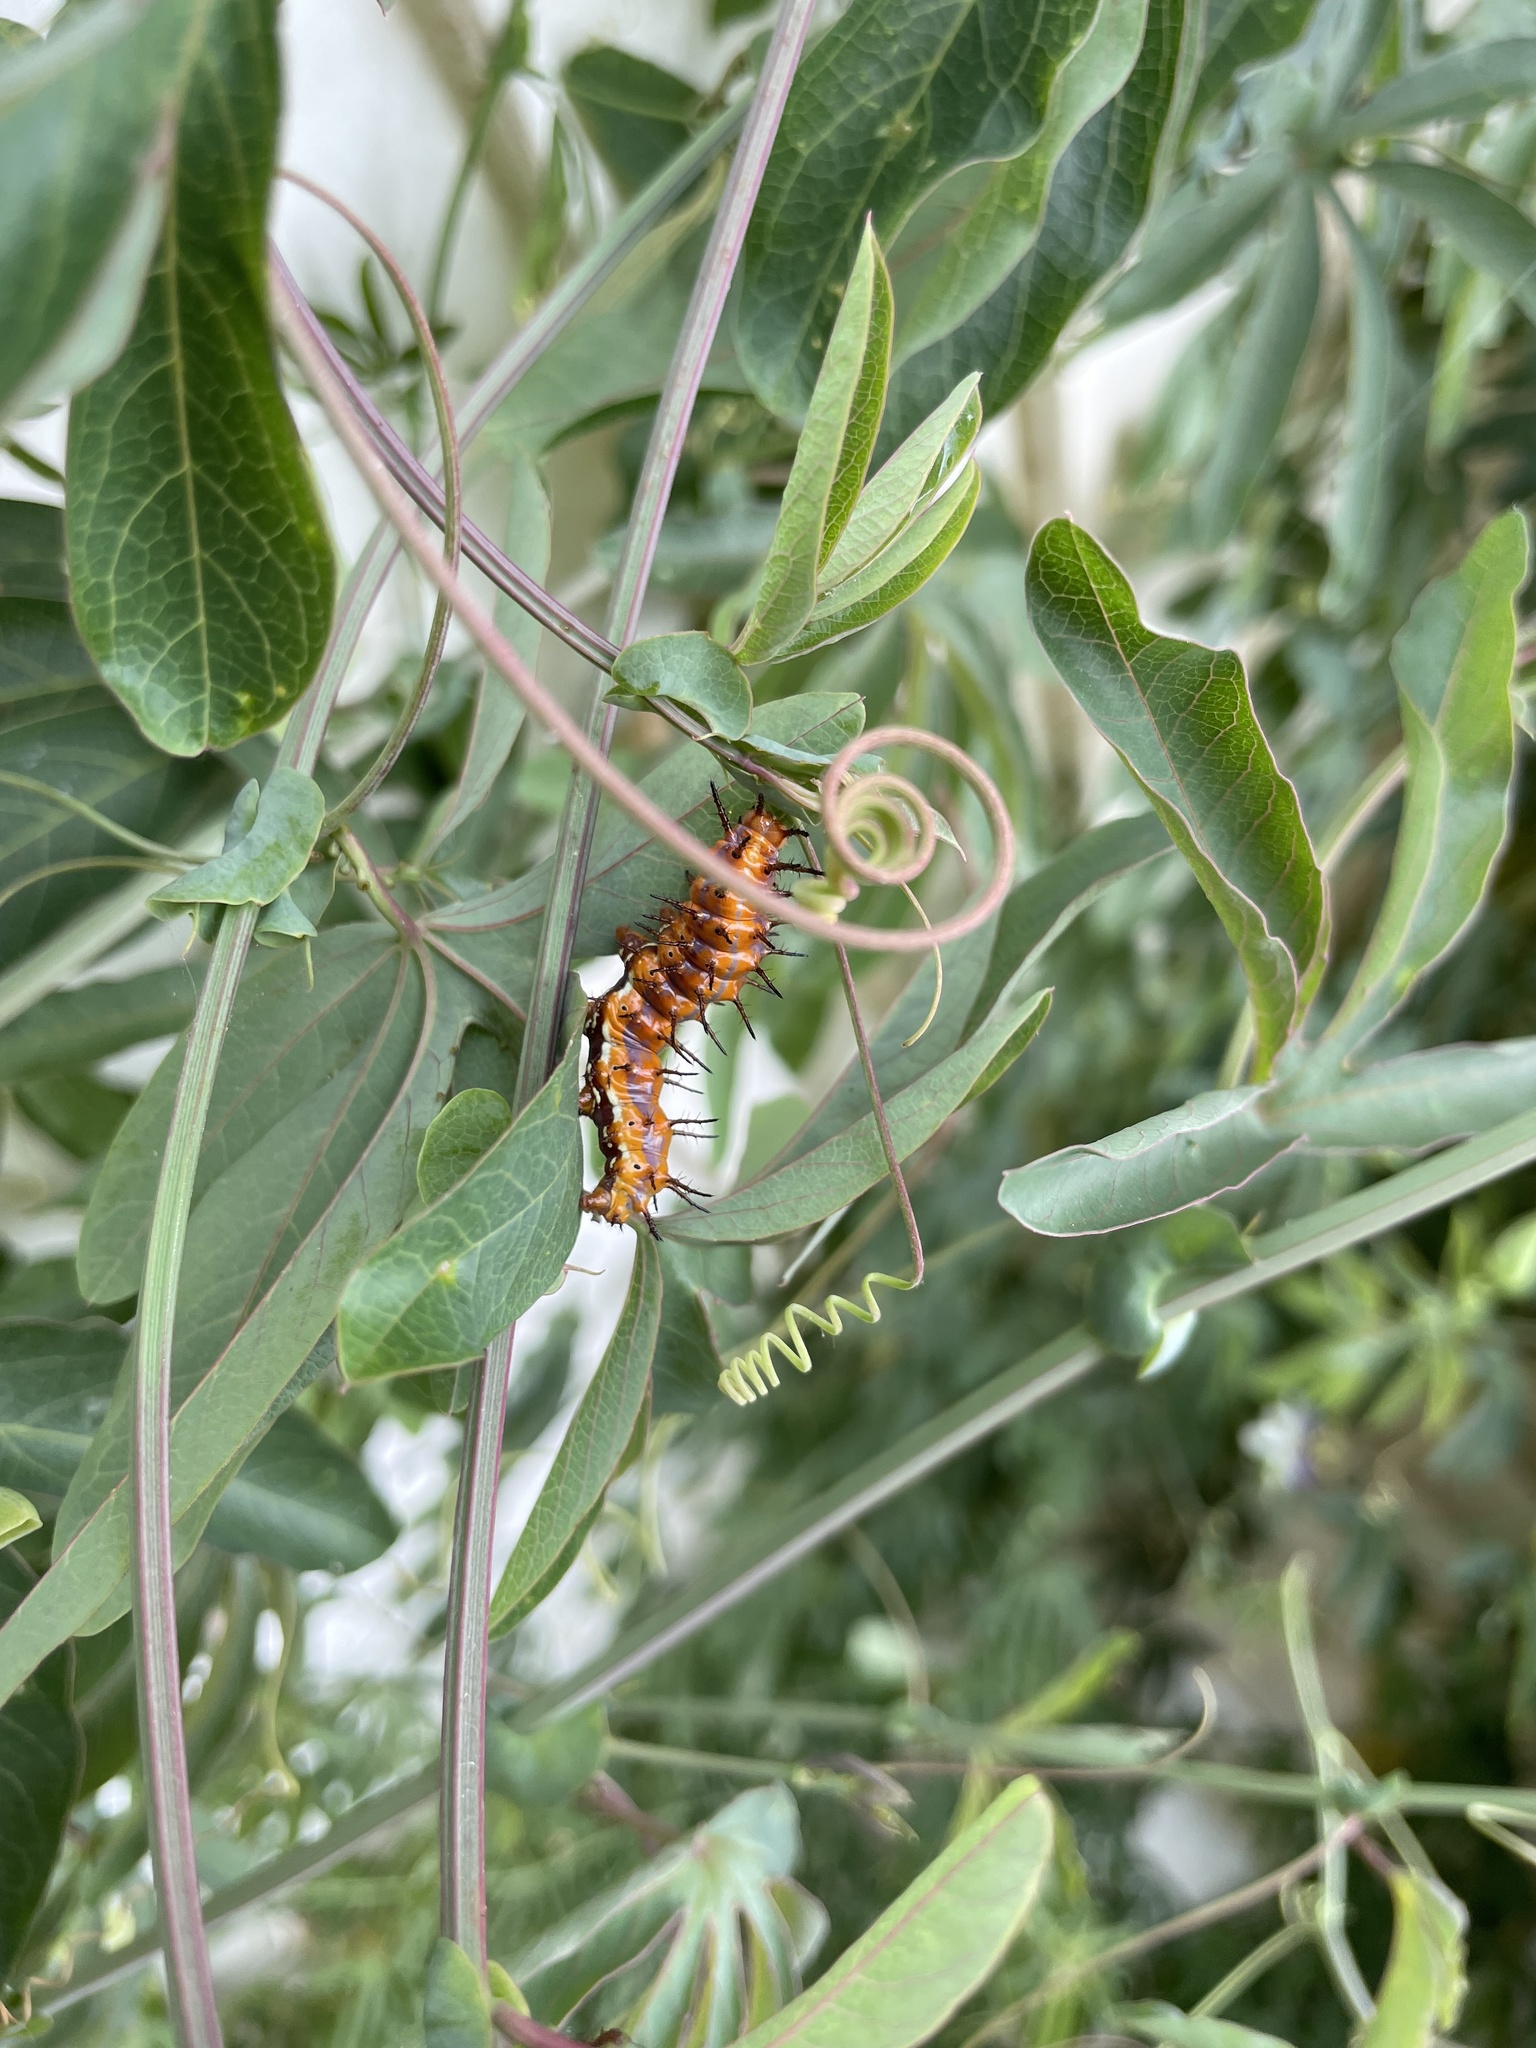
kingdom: Animalia
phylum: Arthropoda
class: Insecta
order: Lepidoptera
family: Nymphalidae
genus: Dione
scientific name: Dione vanillae
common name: Gulf fritillary
